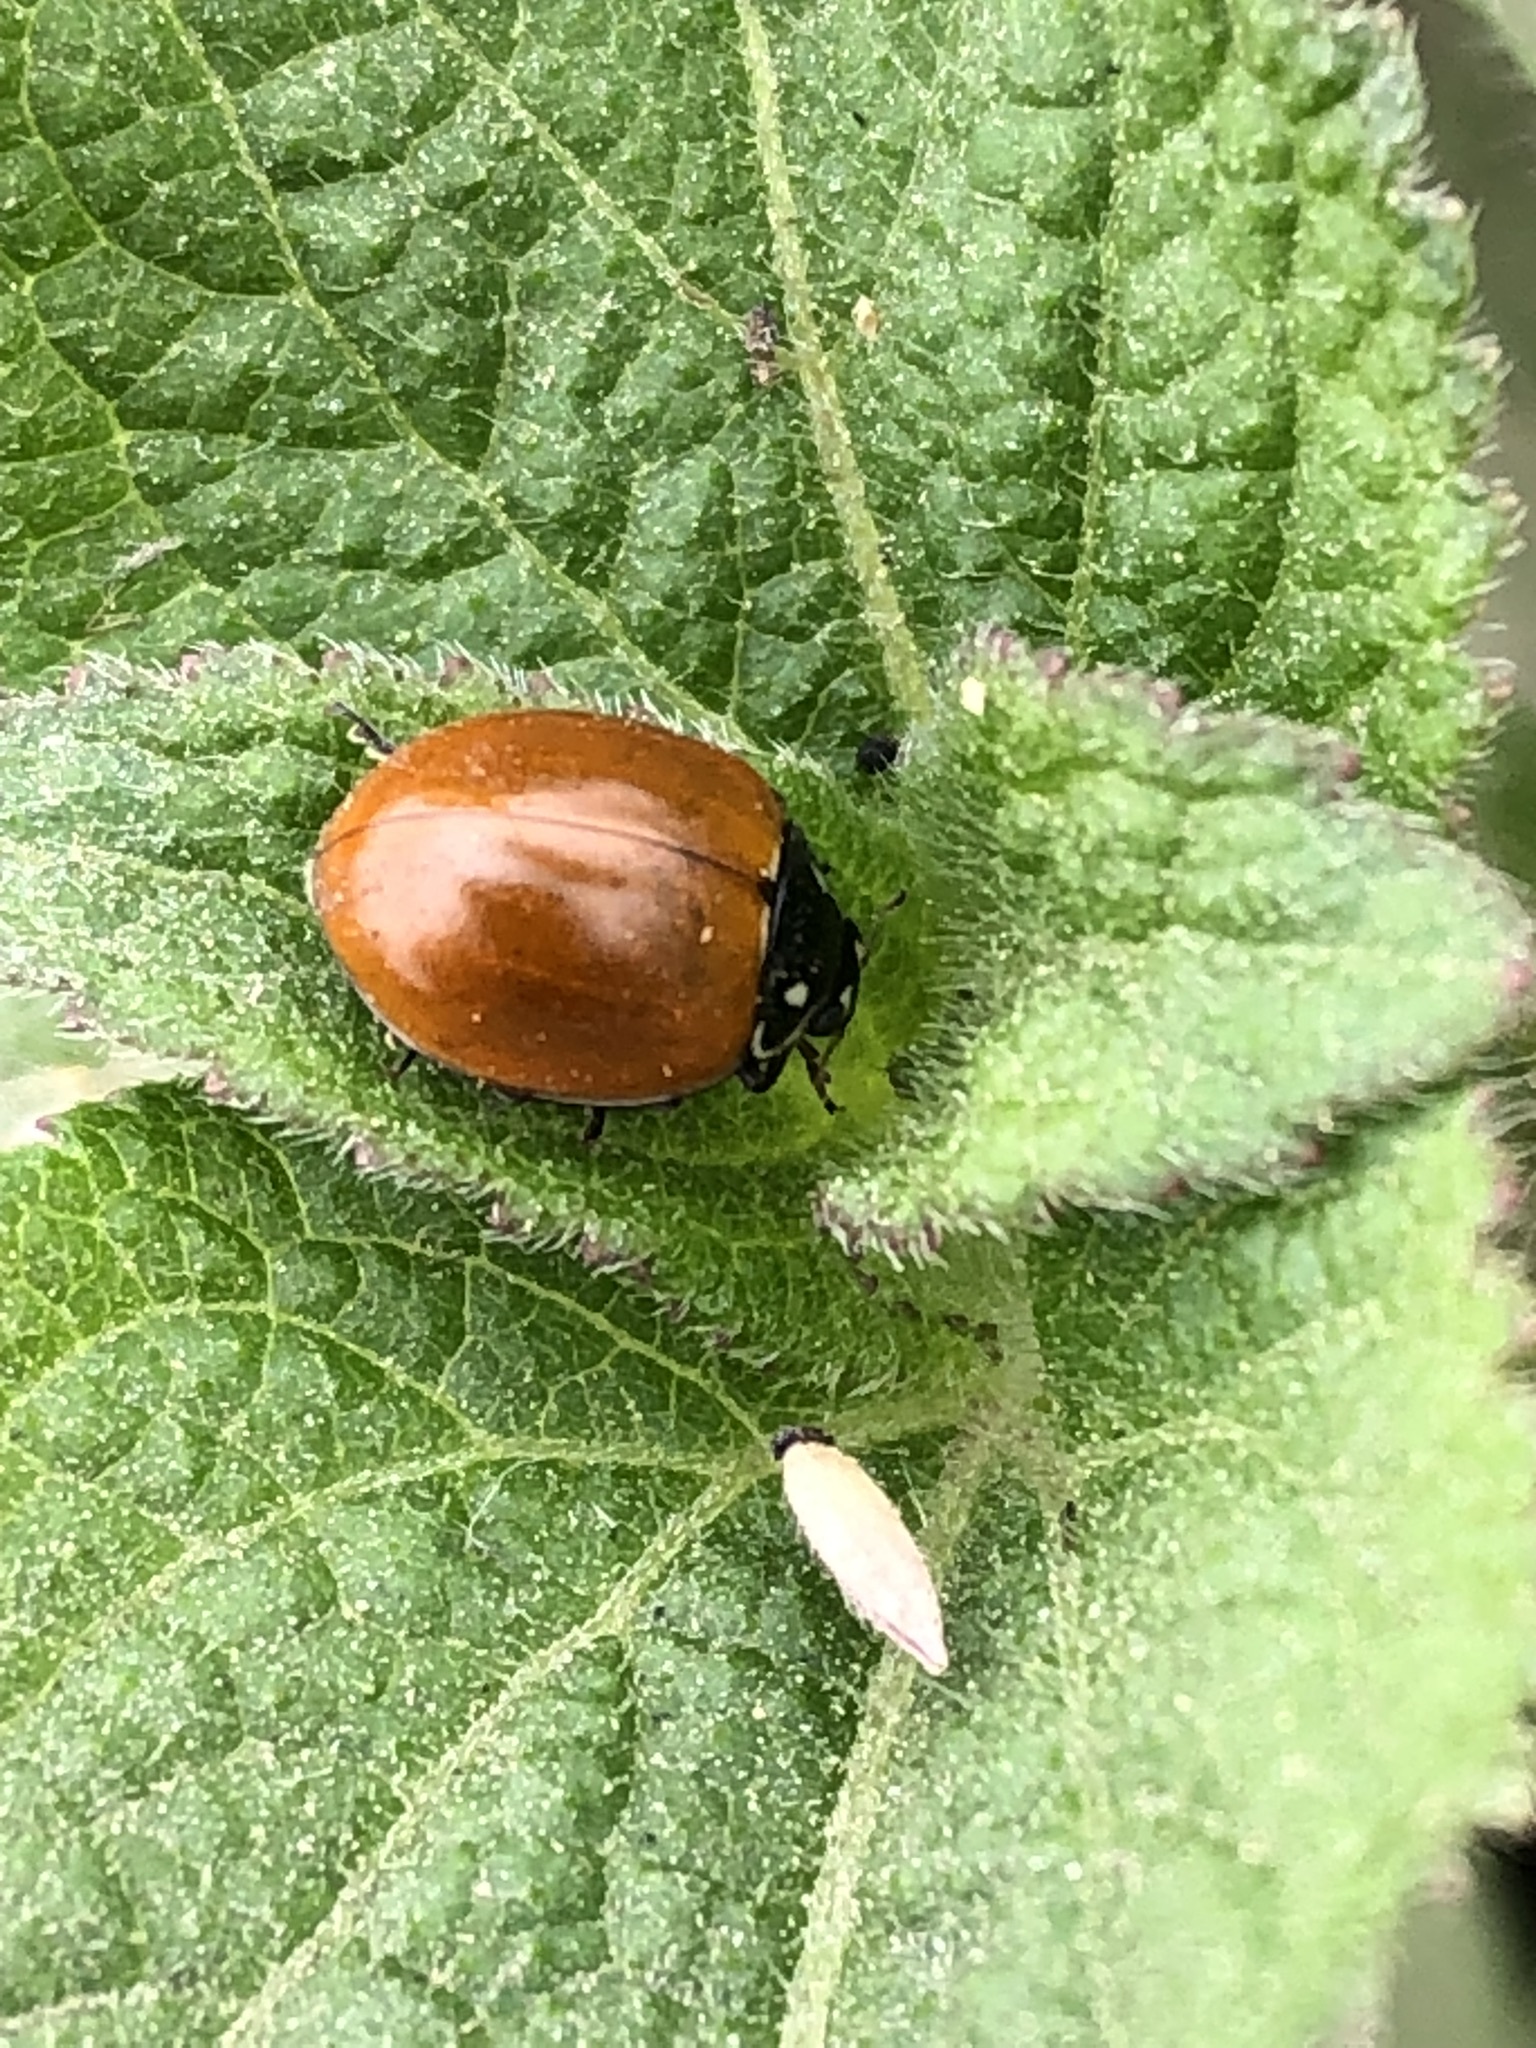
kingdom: Animalia
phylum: Arthropoda
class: Insecta
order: Coleoptera
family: Coccinellidae
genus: Cycloneda
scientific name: Cycloneda sanguinea
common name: Ladybird beetle
